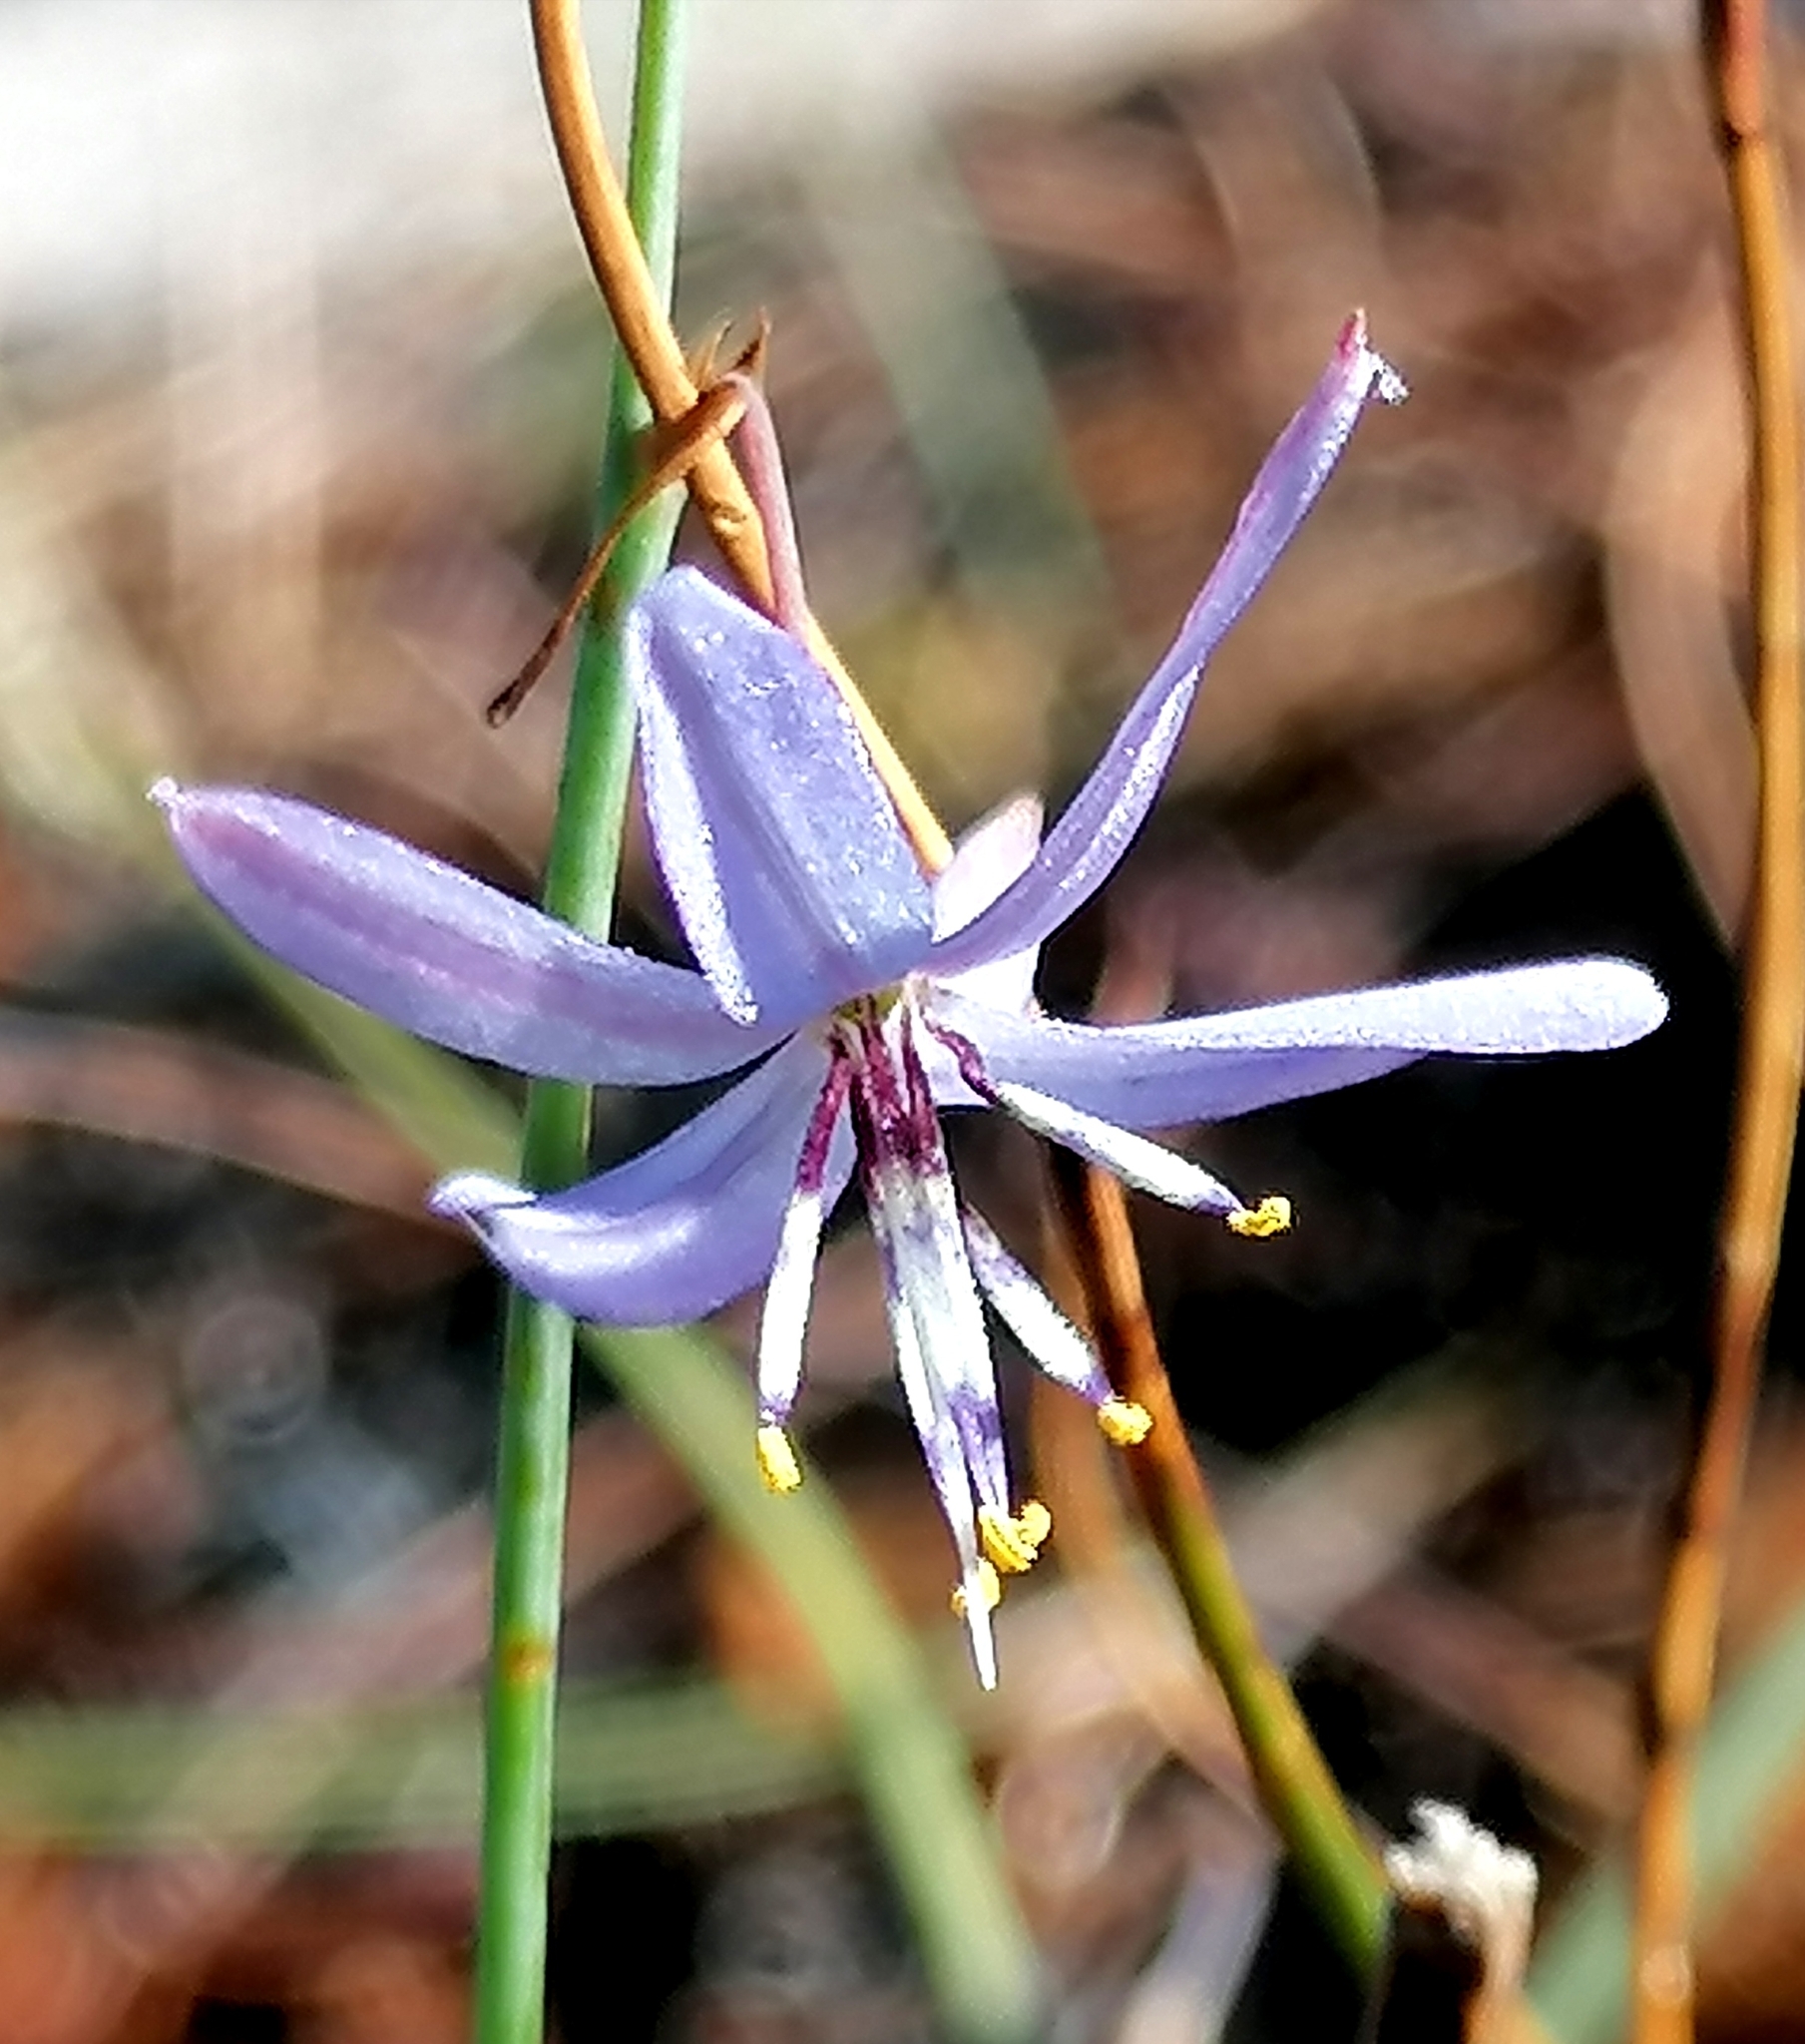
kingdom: Plantae
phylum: Tracheophyta
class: Liliopsida
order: Asparagales
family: Asphodelaceae
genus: Caesia
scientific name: Caesia contorta
